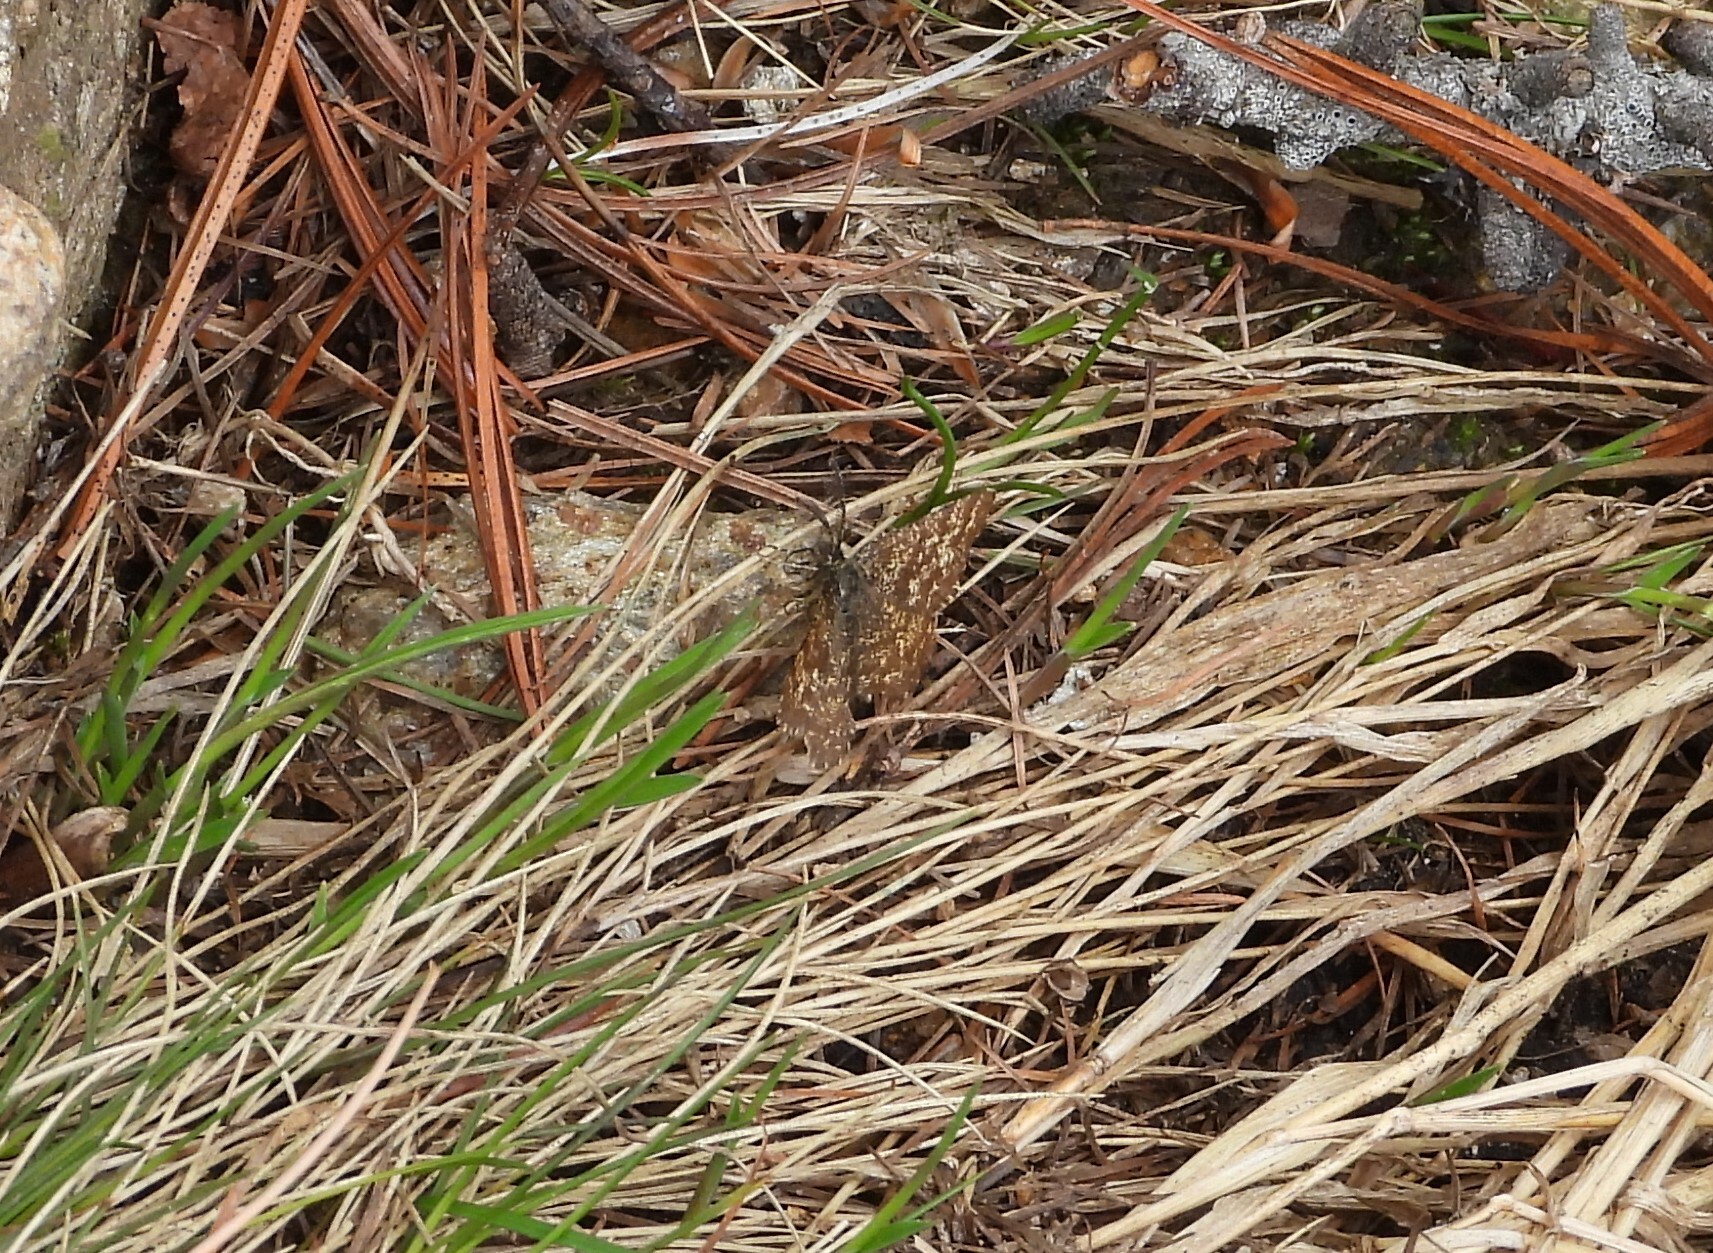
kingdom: Animalia
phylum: Arthropoda
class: Insecta
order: Lepidoptera
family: Geometridae
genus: Ematurga
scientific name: Ematurga atomaria
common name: Common heath
